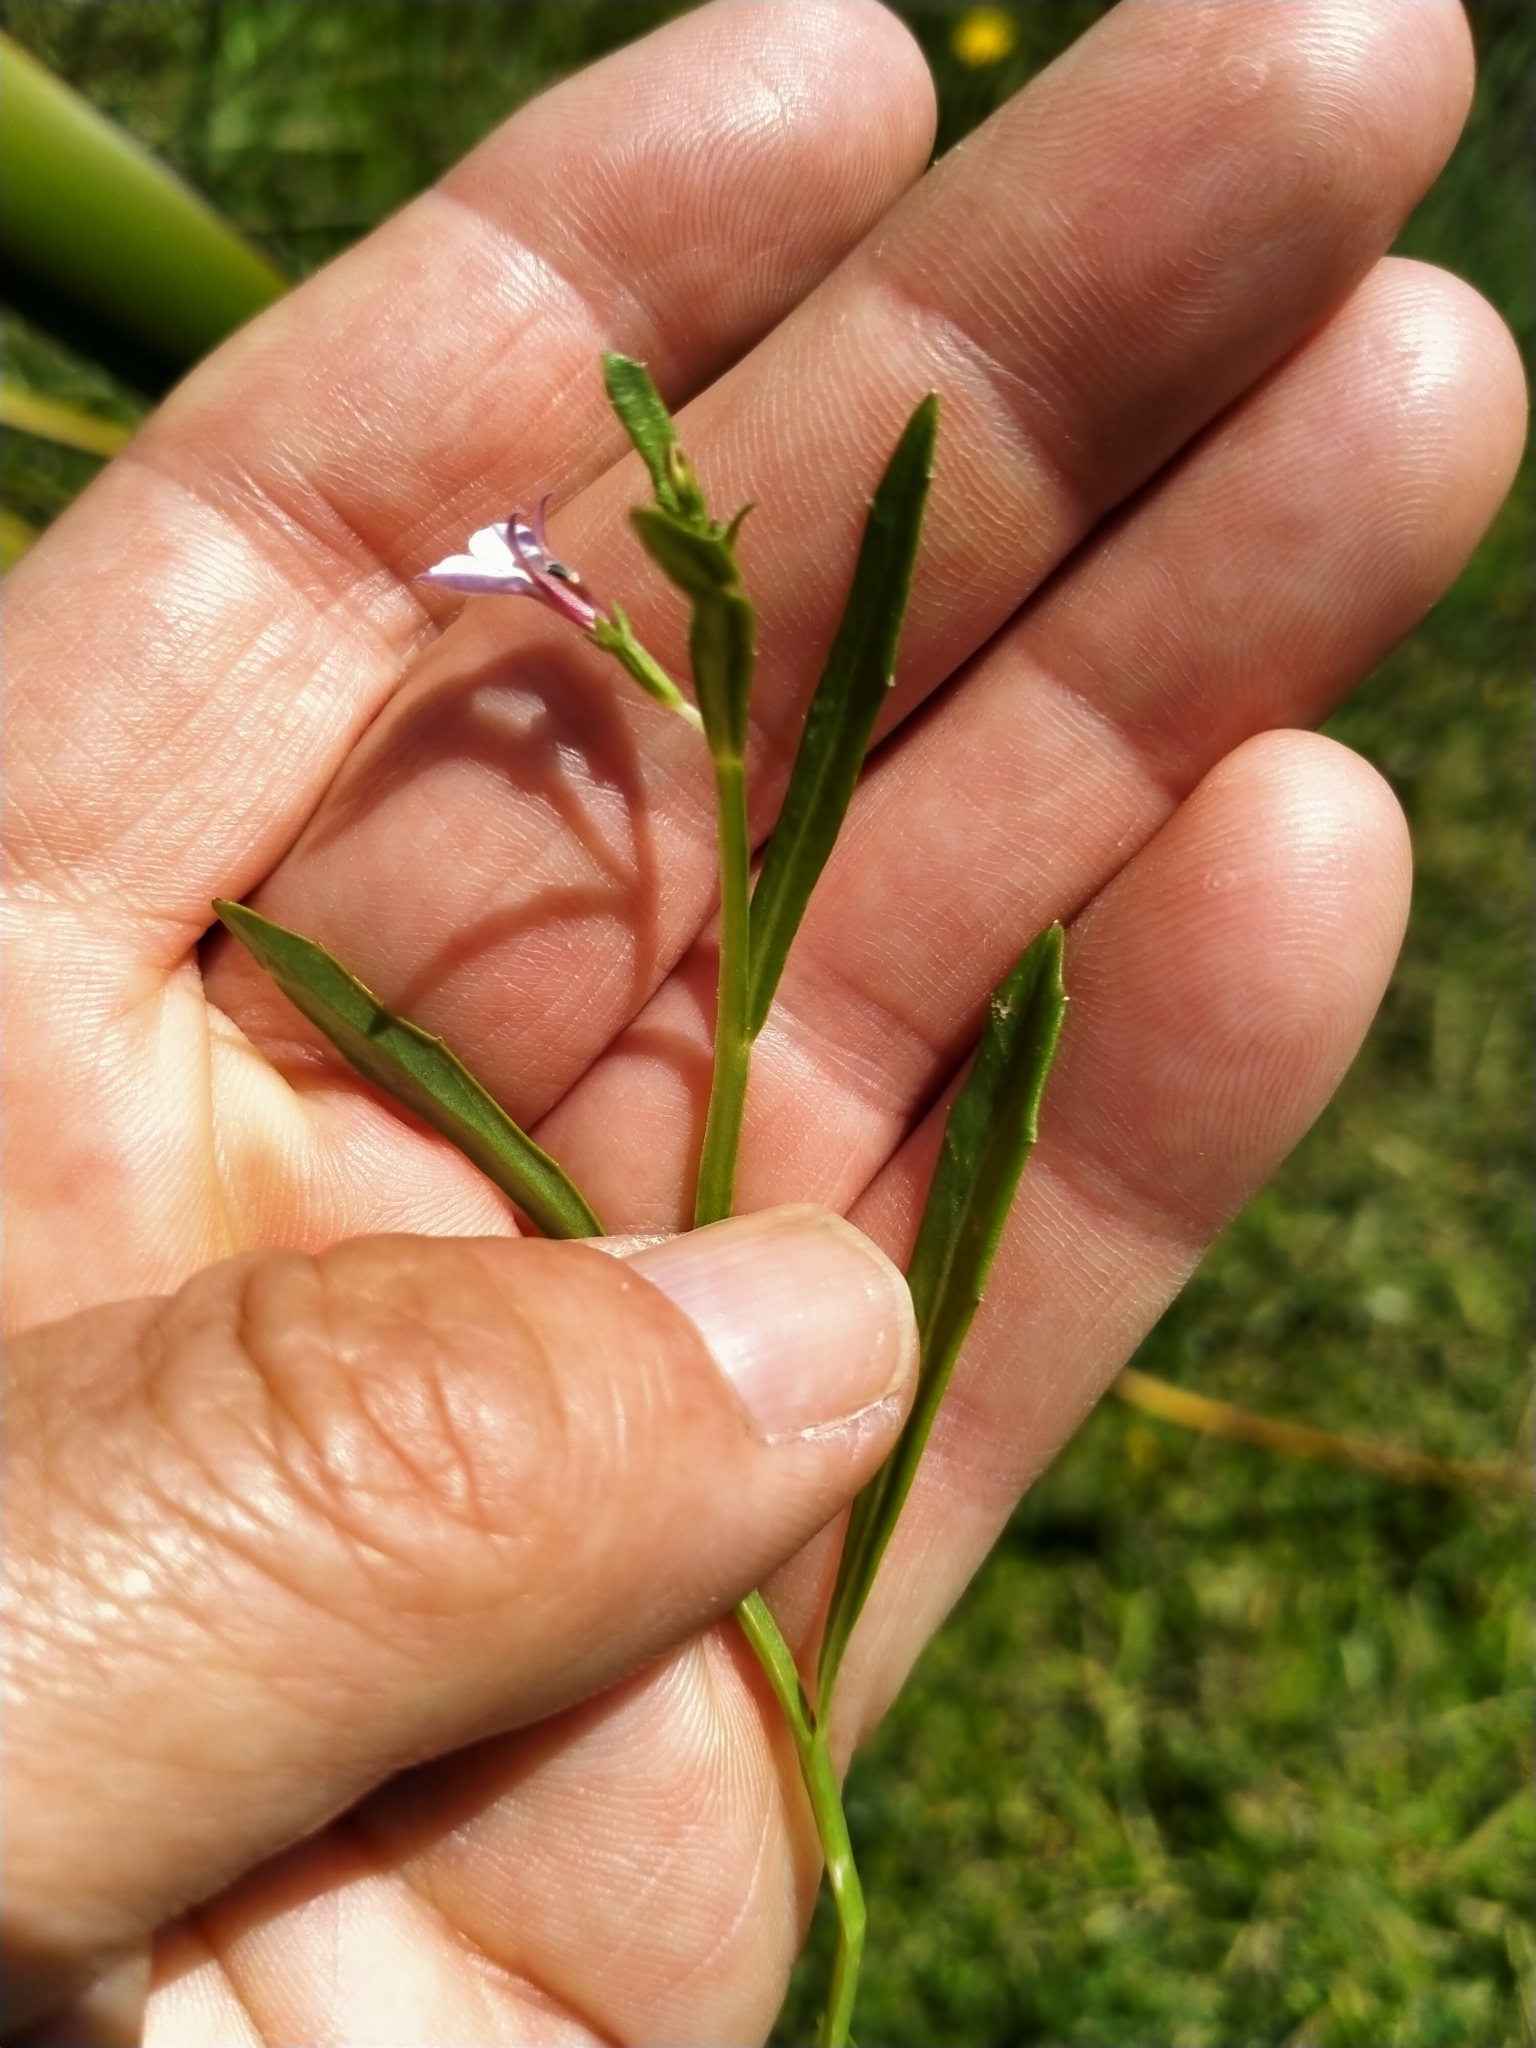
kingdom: Plantae
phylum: Tracheophyta
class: Magnoliopsida
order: Asterales
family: Campanulaceae
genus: Lobelia
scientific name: Lobelia anceps
